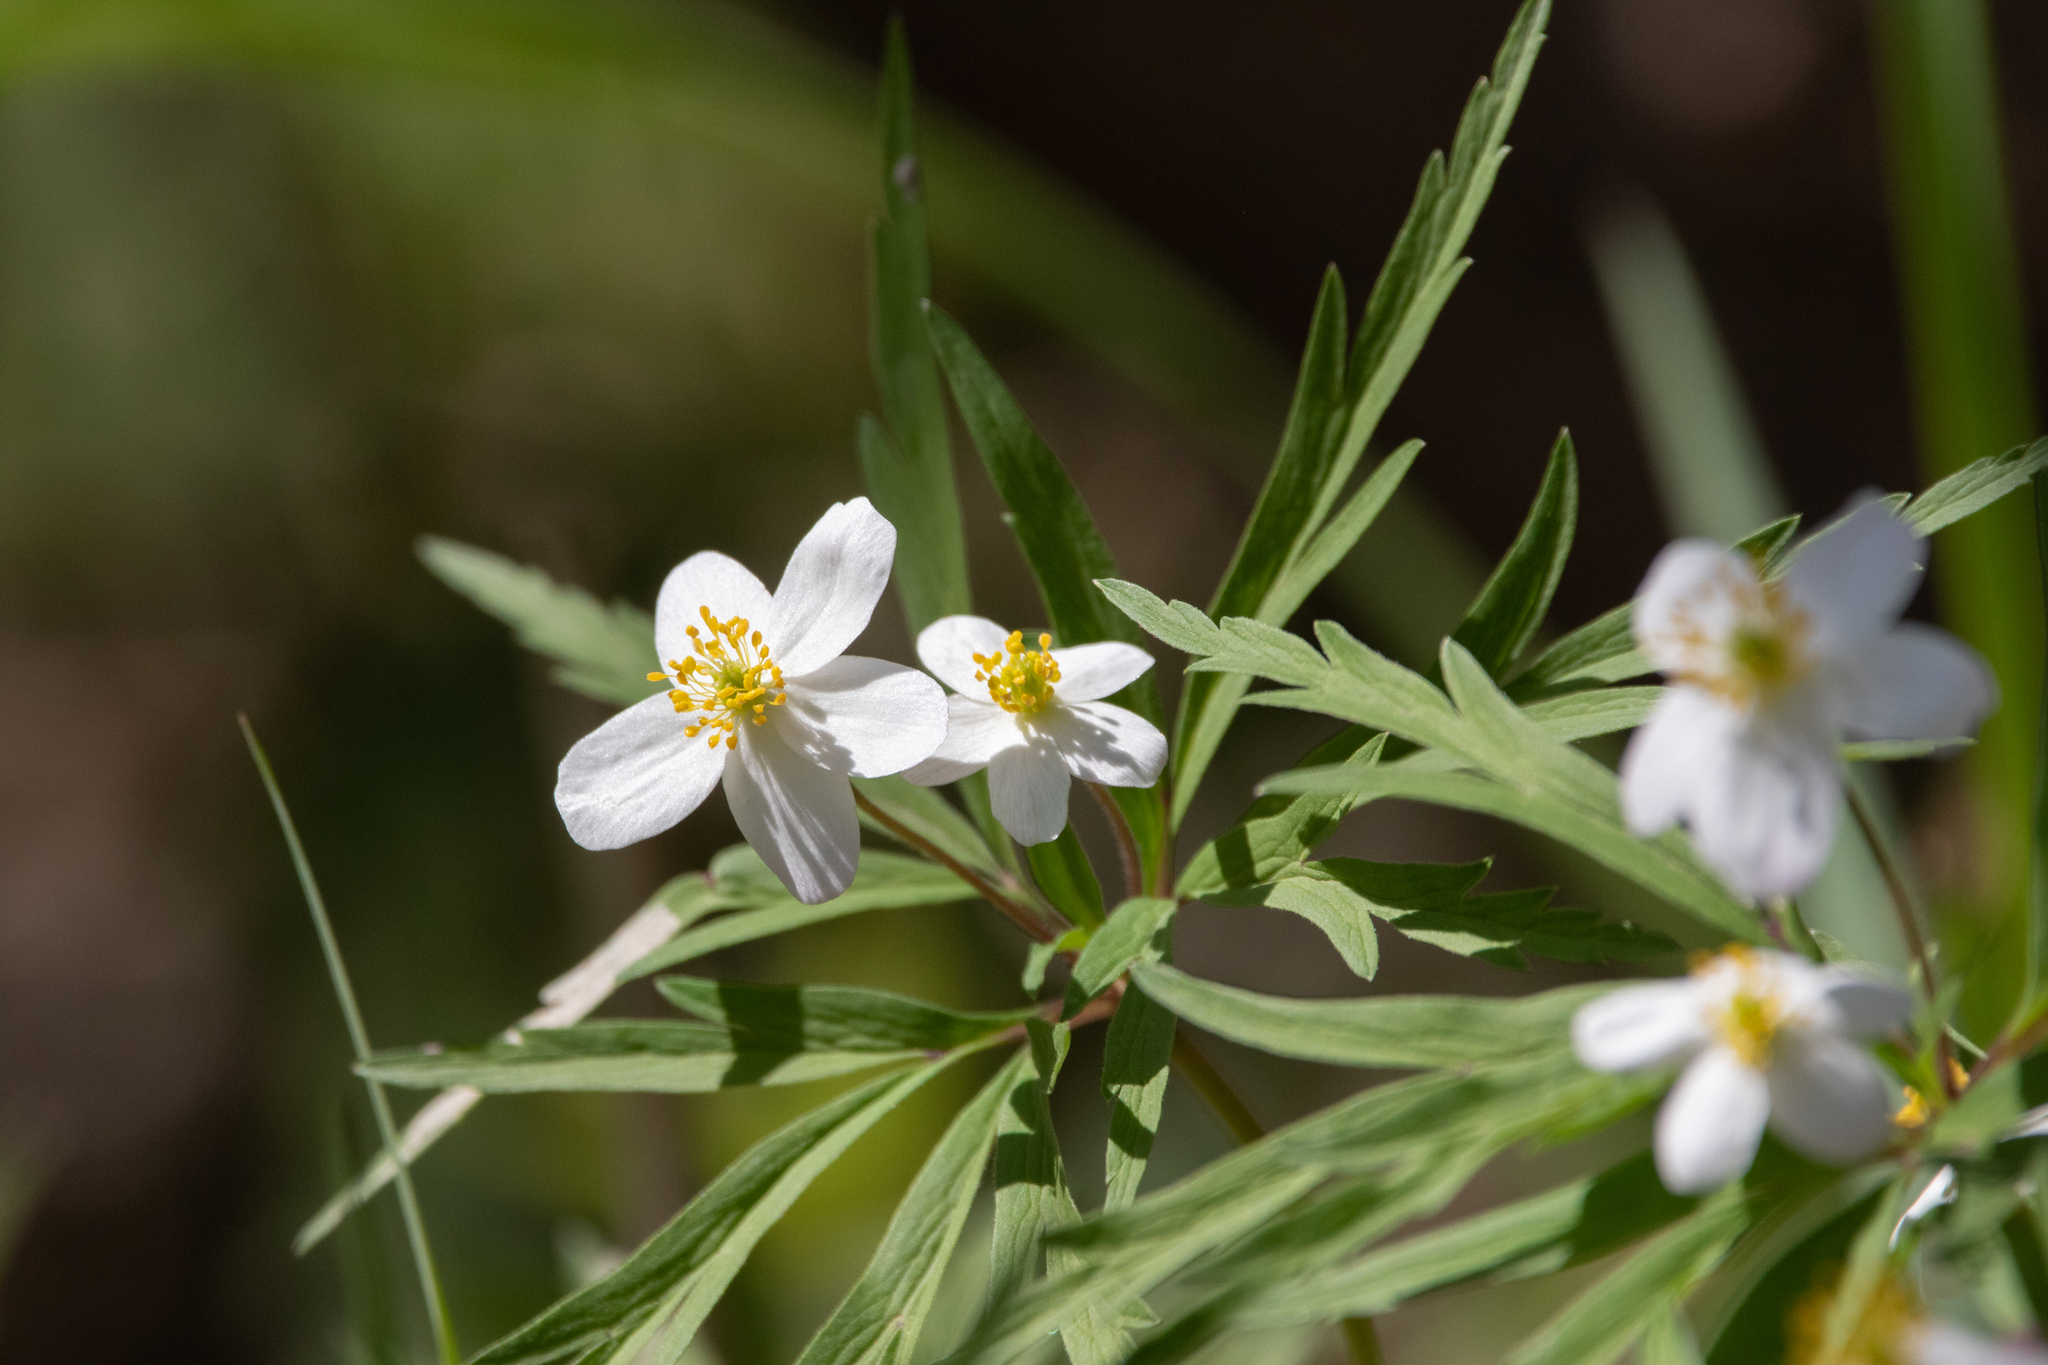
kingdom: Plantae
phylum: Tracheophyta
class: Magnoliopsida
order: Ranunculales
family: Ranunculaceae
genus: Anemone
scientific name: Anemone caerulea
